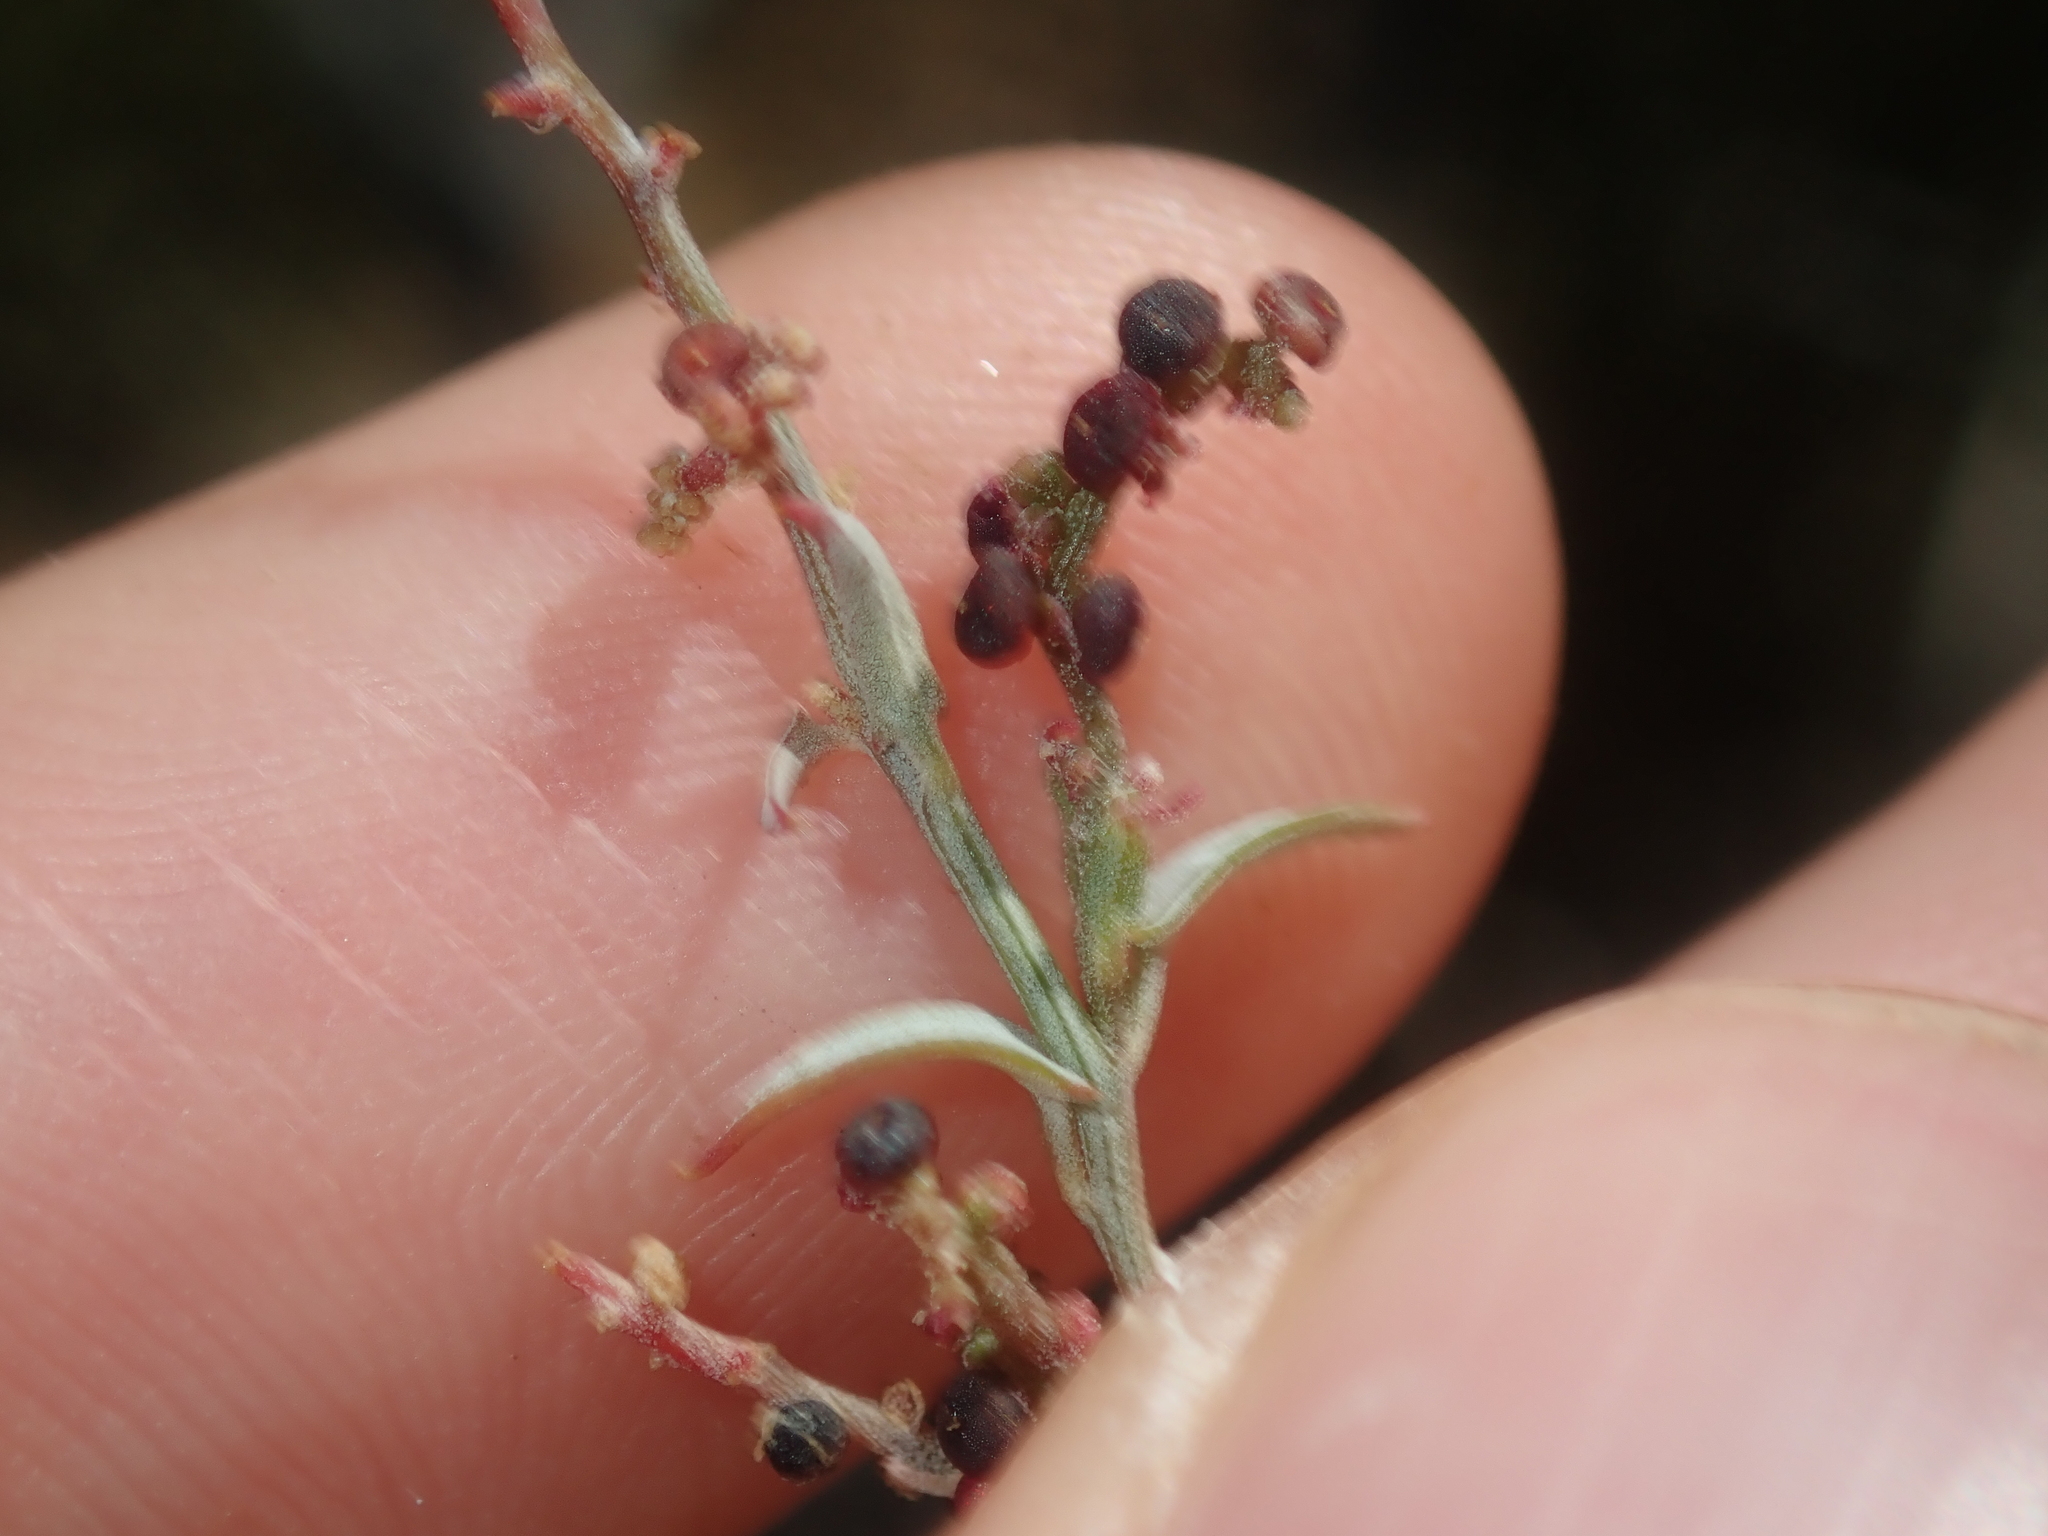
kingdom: Plantae
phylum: Tracheophyta
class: Magnoliopsida
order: Caryophyllales
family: Amaranthaceae
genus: Chenopodium
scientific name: Chenopodium nutans
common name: Climbing-saltbush
